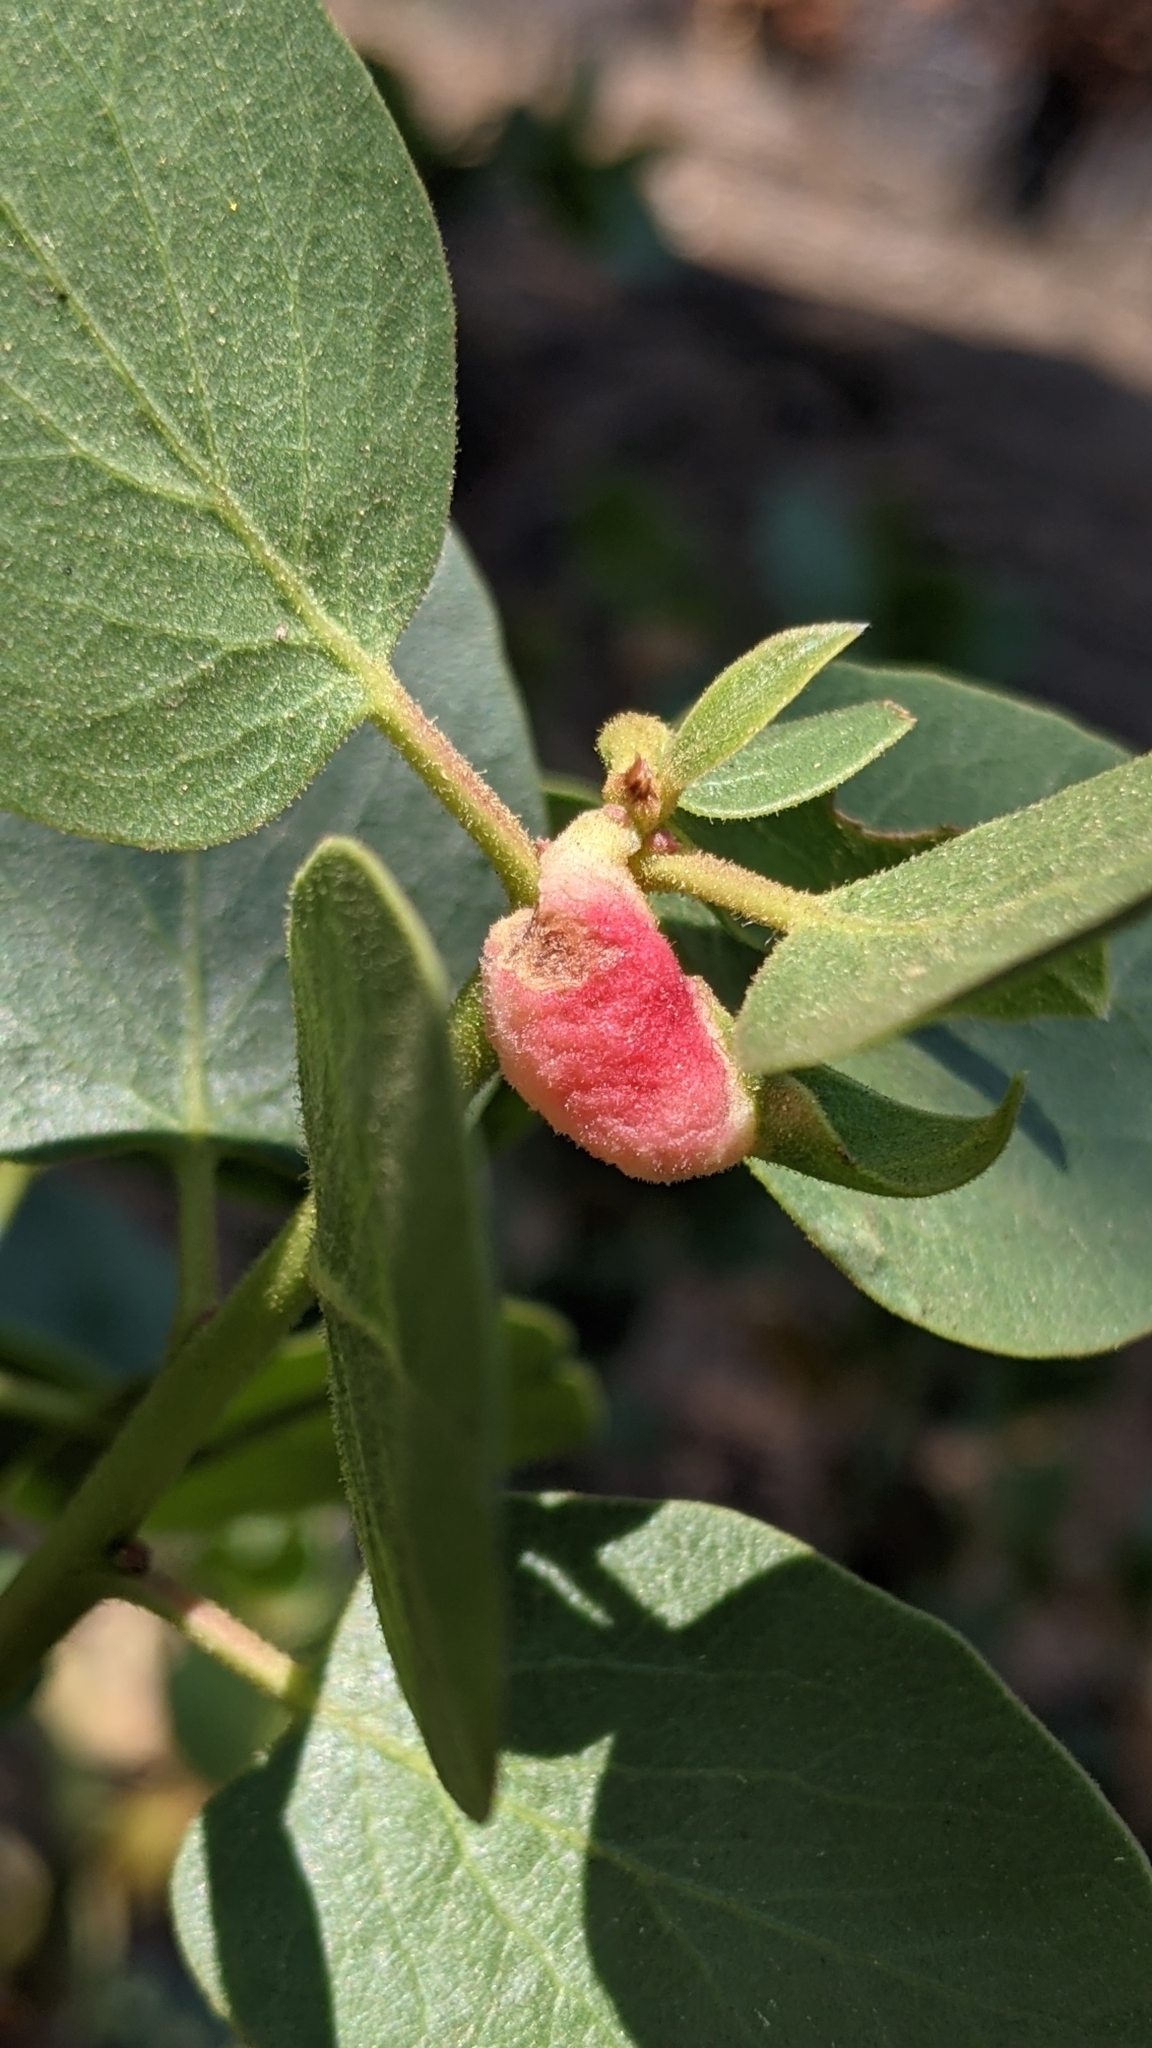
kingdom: Animalia
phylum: Arthropoda
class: Insecta
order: Hemiptera
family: Aphididae
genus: Tamalia
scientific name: Tamalia coweni
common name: Manzanita leafgall aphid
